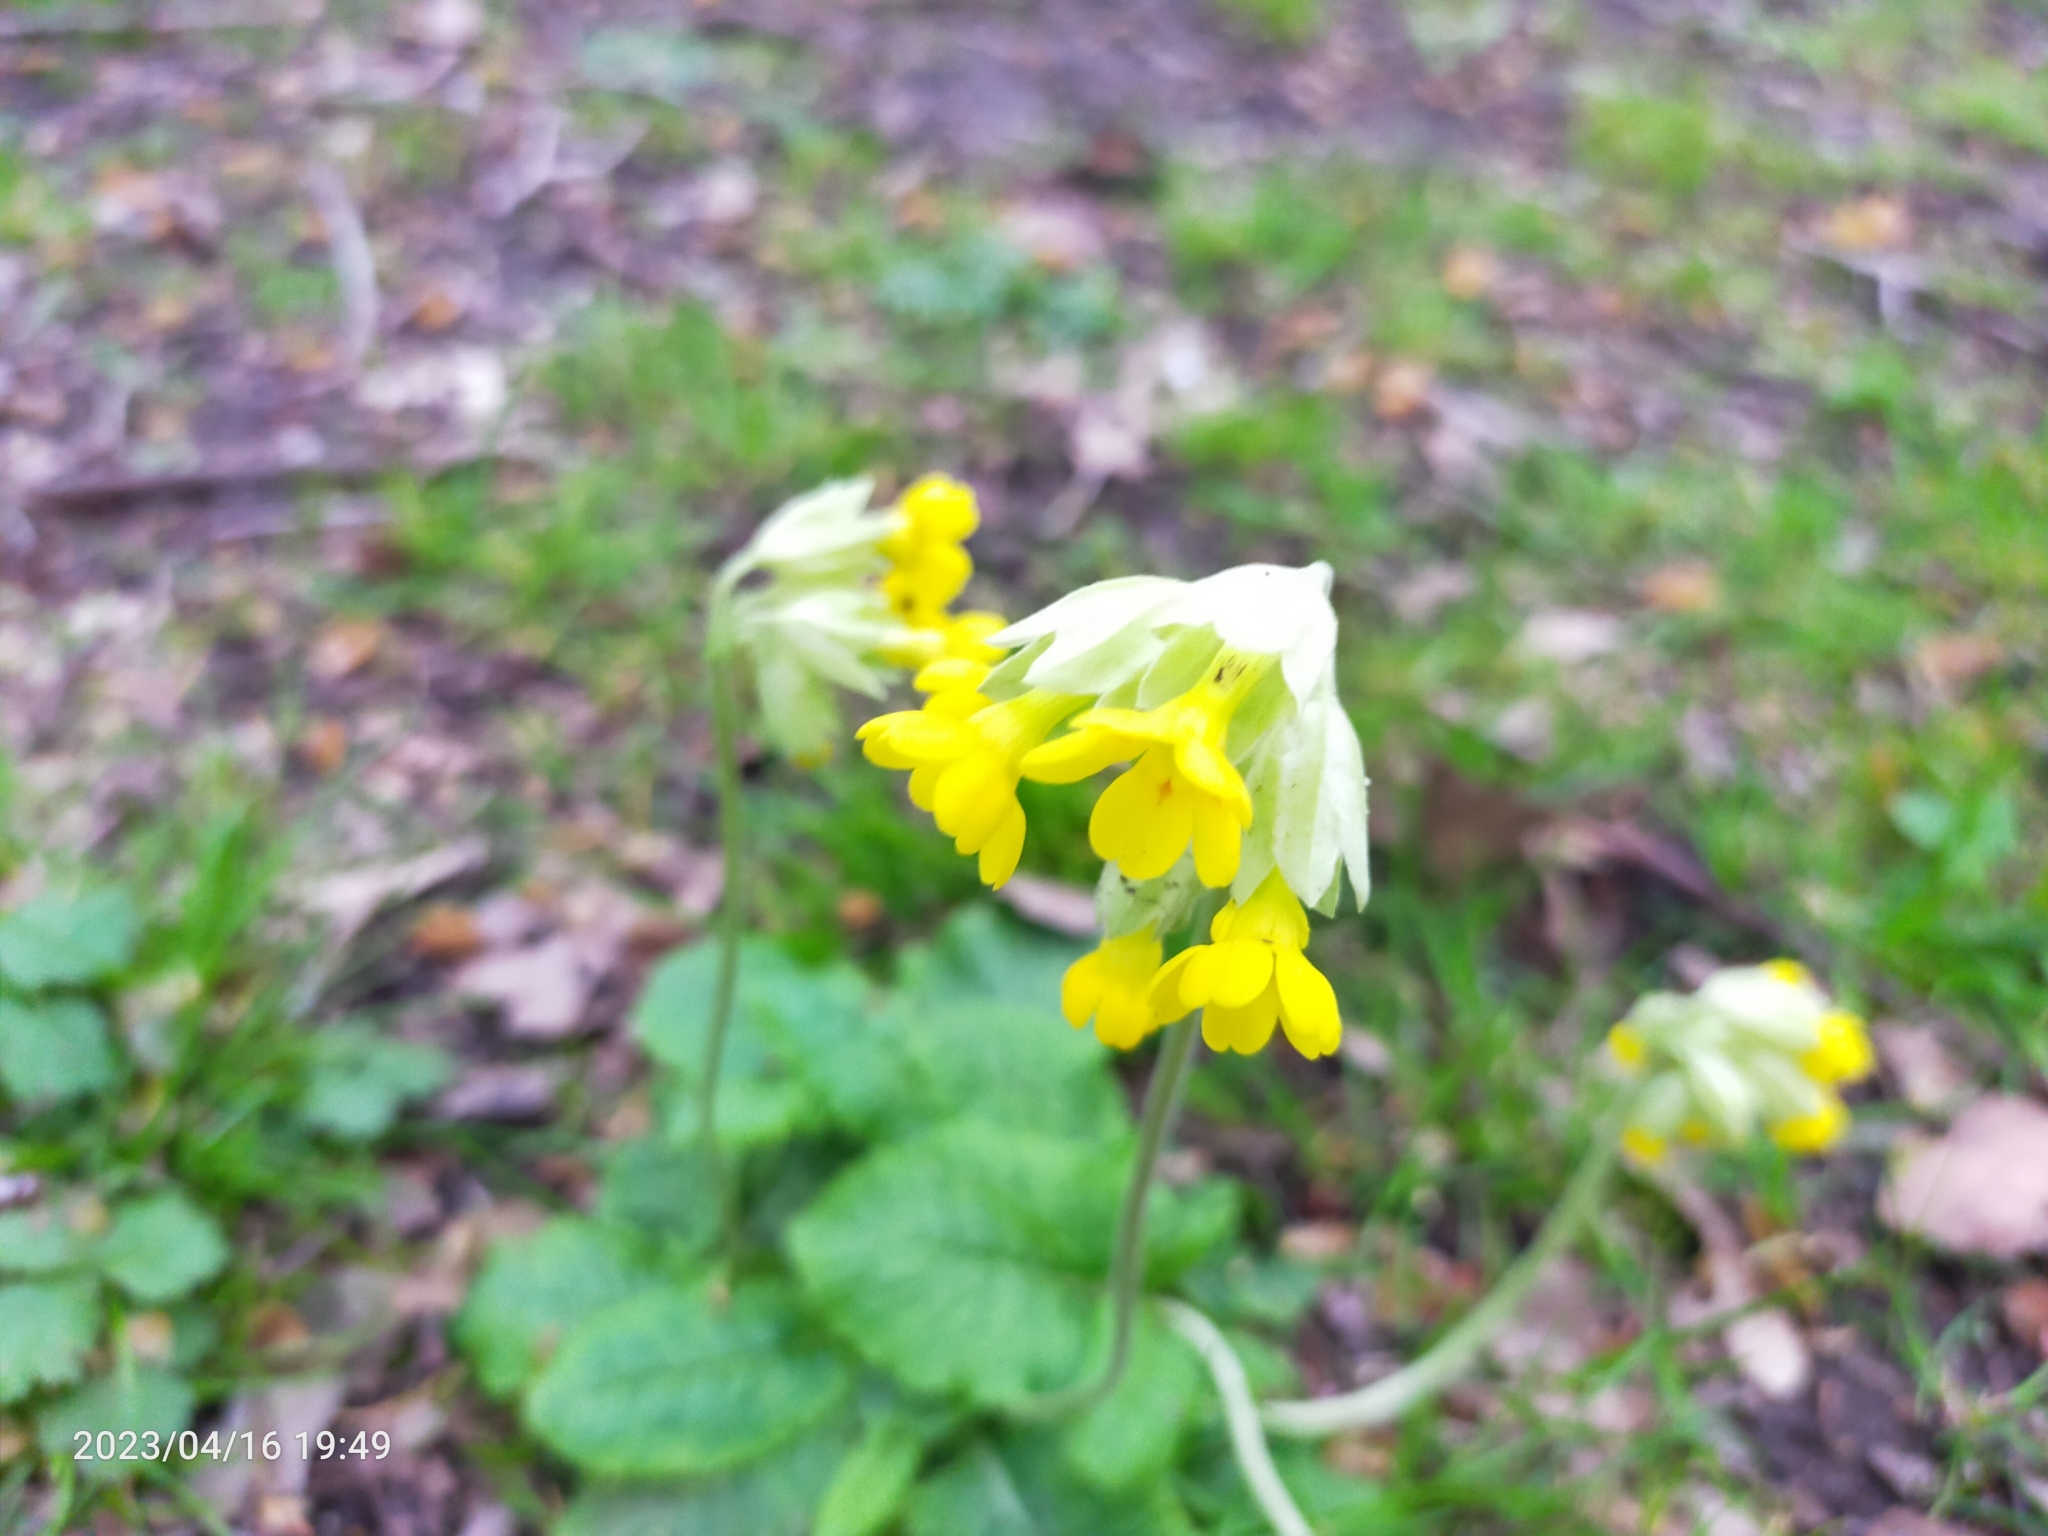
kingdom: Plantae
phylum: Tracheophyta
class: Magnoliopsida
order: Ericales
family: Primulaceae
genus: Primula
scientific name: Primula veris
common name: Cowslip
